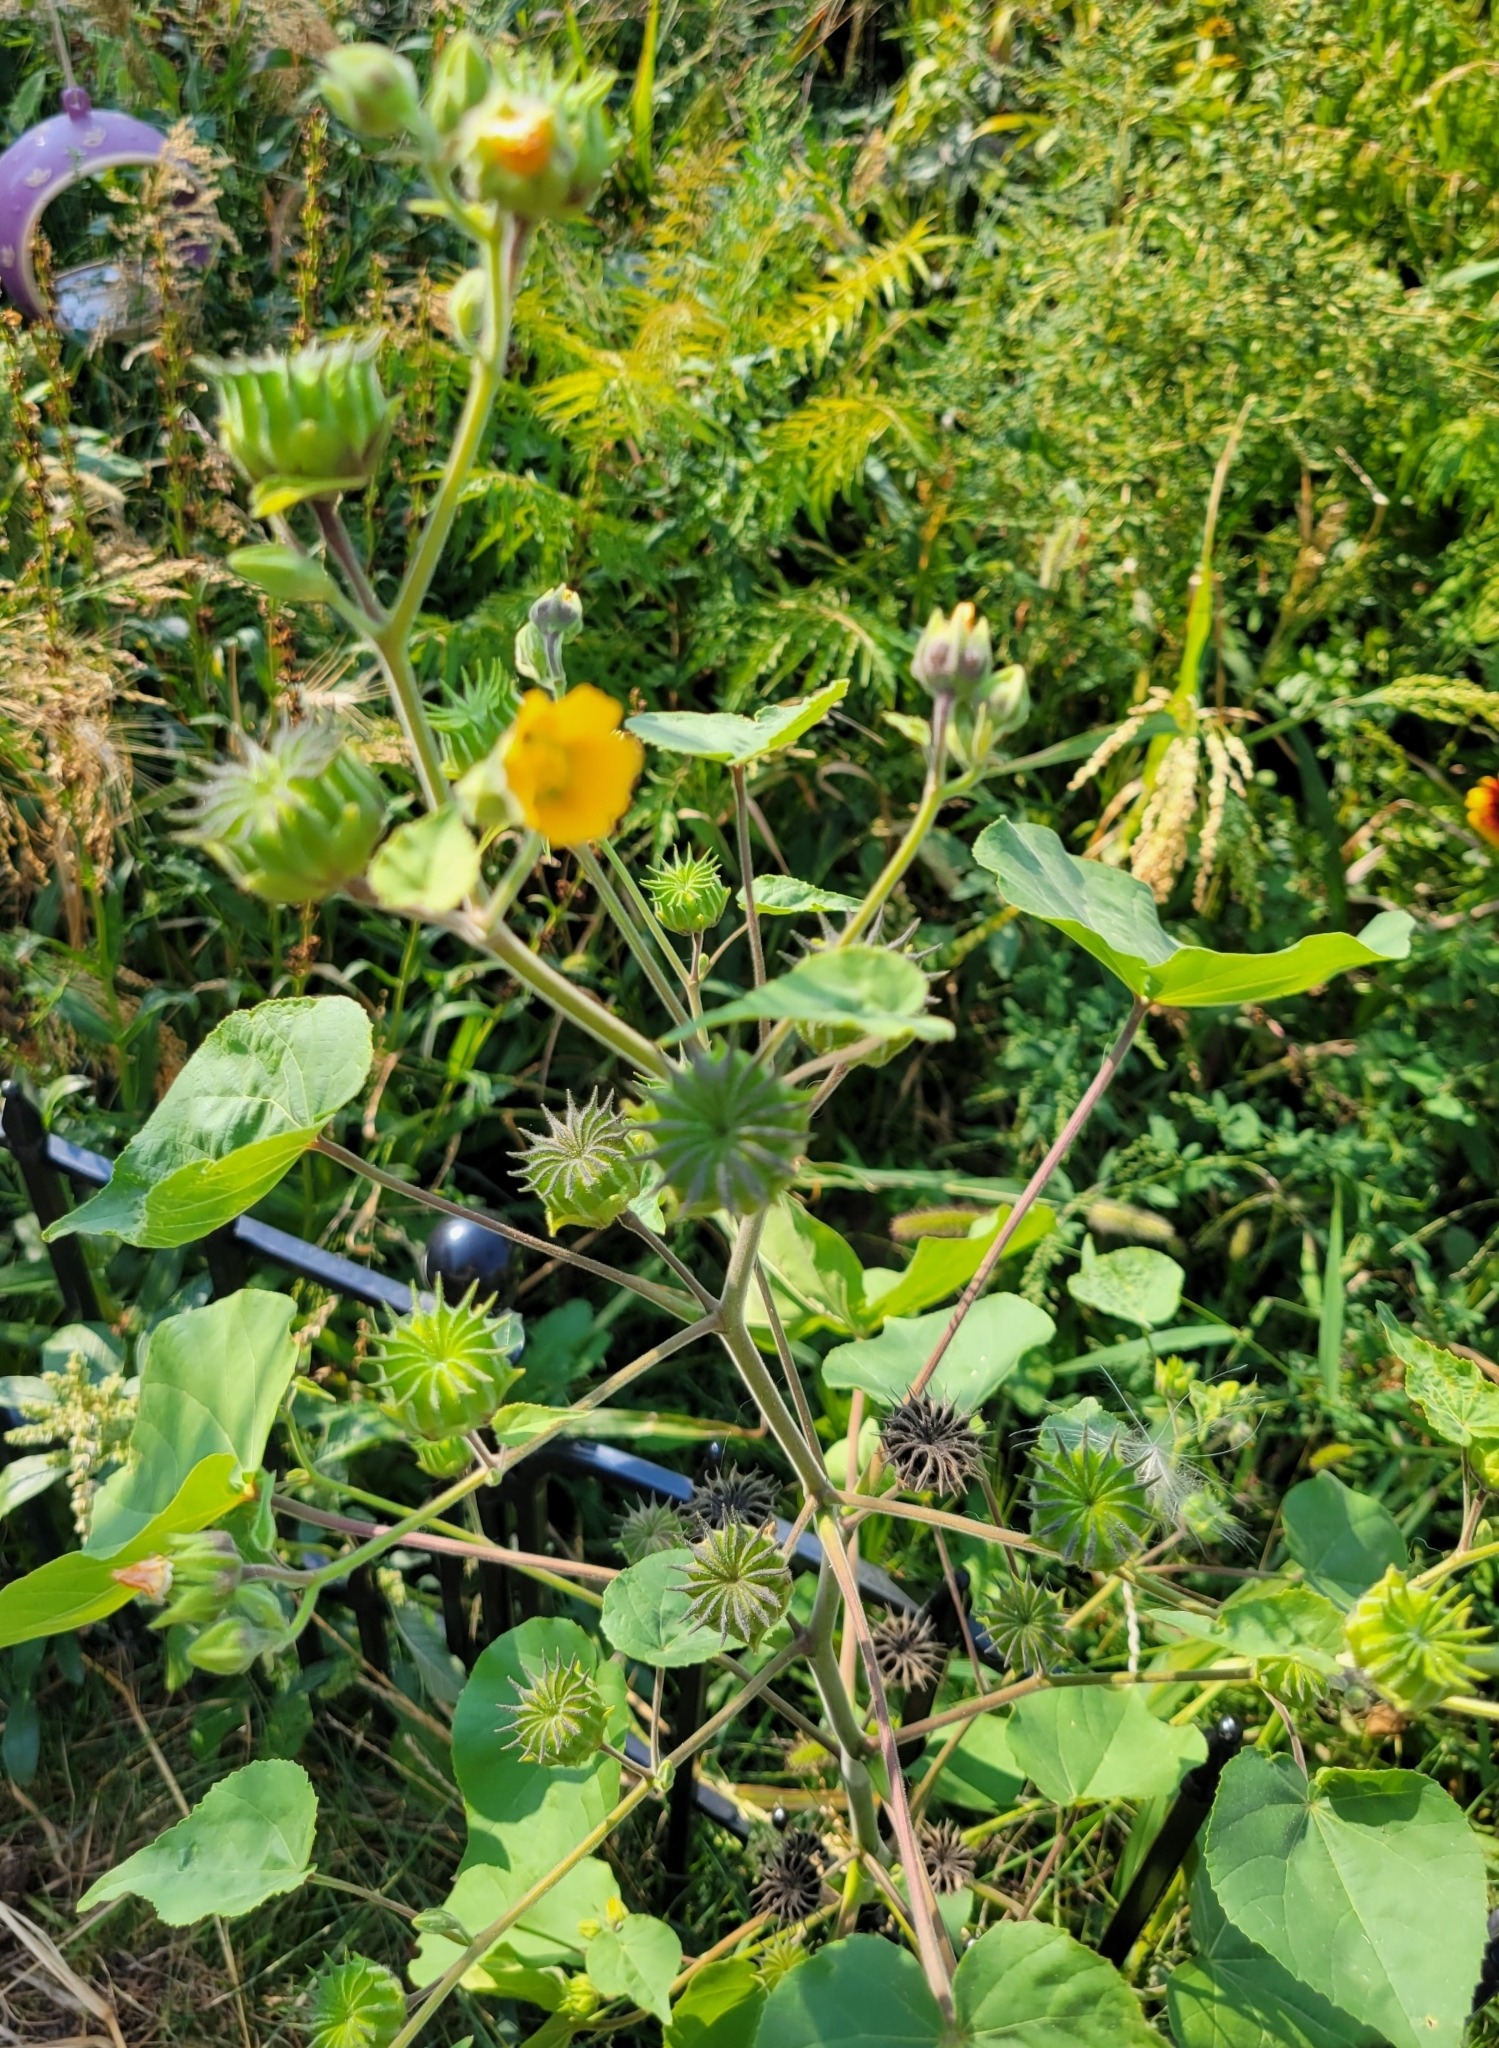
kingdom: Plantae
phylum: Tracheophyta
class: Magnoliopsida
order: Malvales
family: Malvaceae
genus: Abutilon
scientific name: Abutilon theophrasti
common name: Velvetleaf
